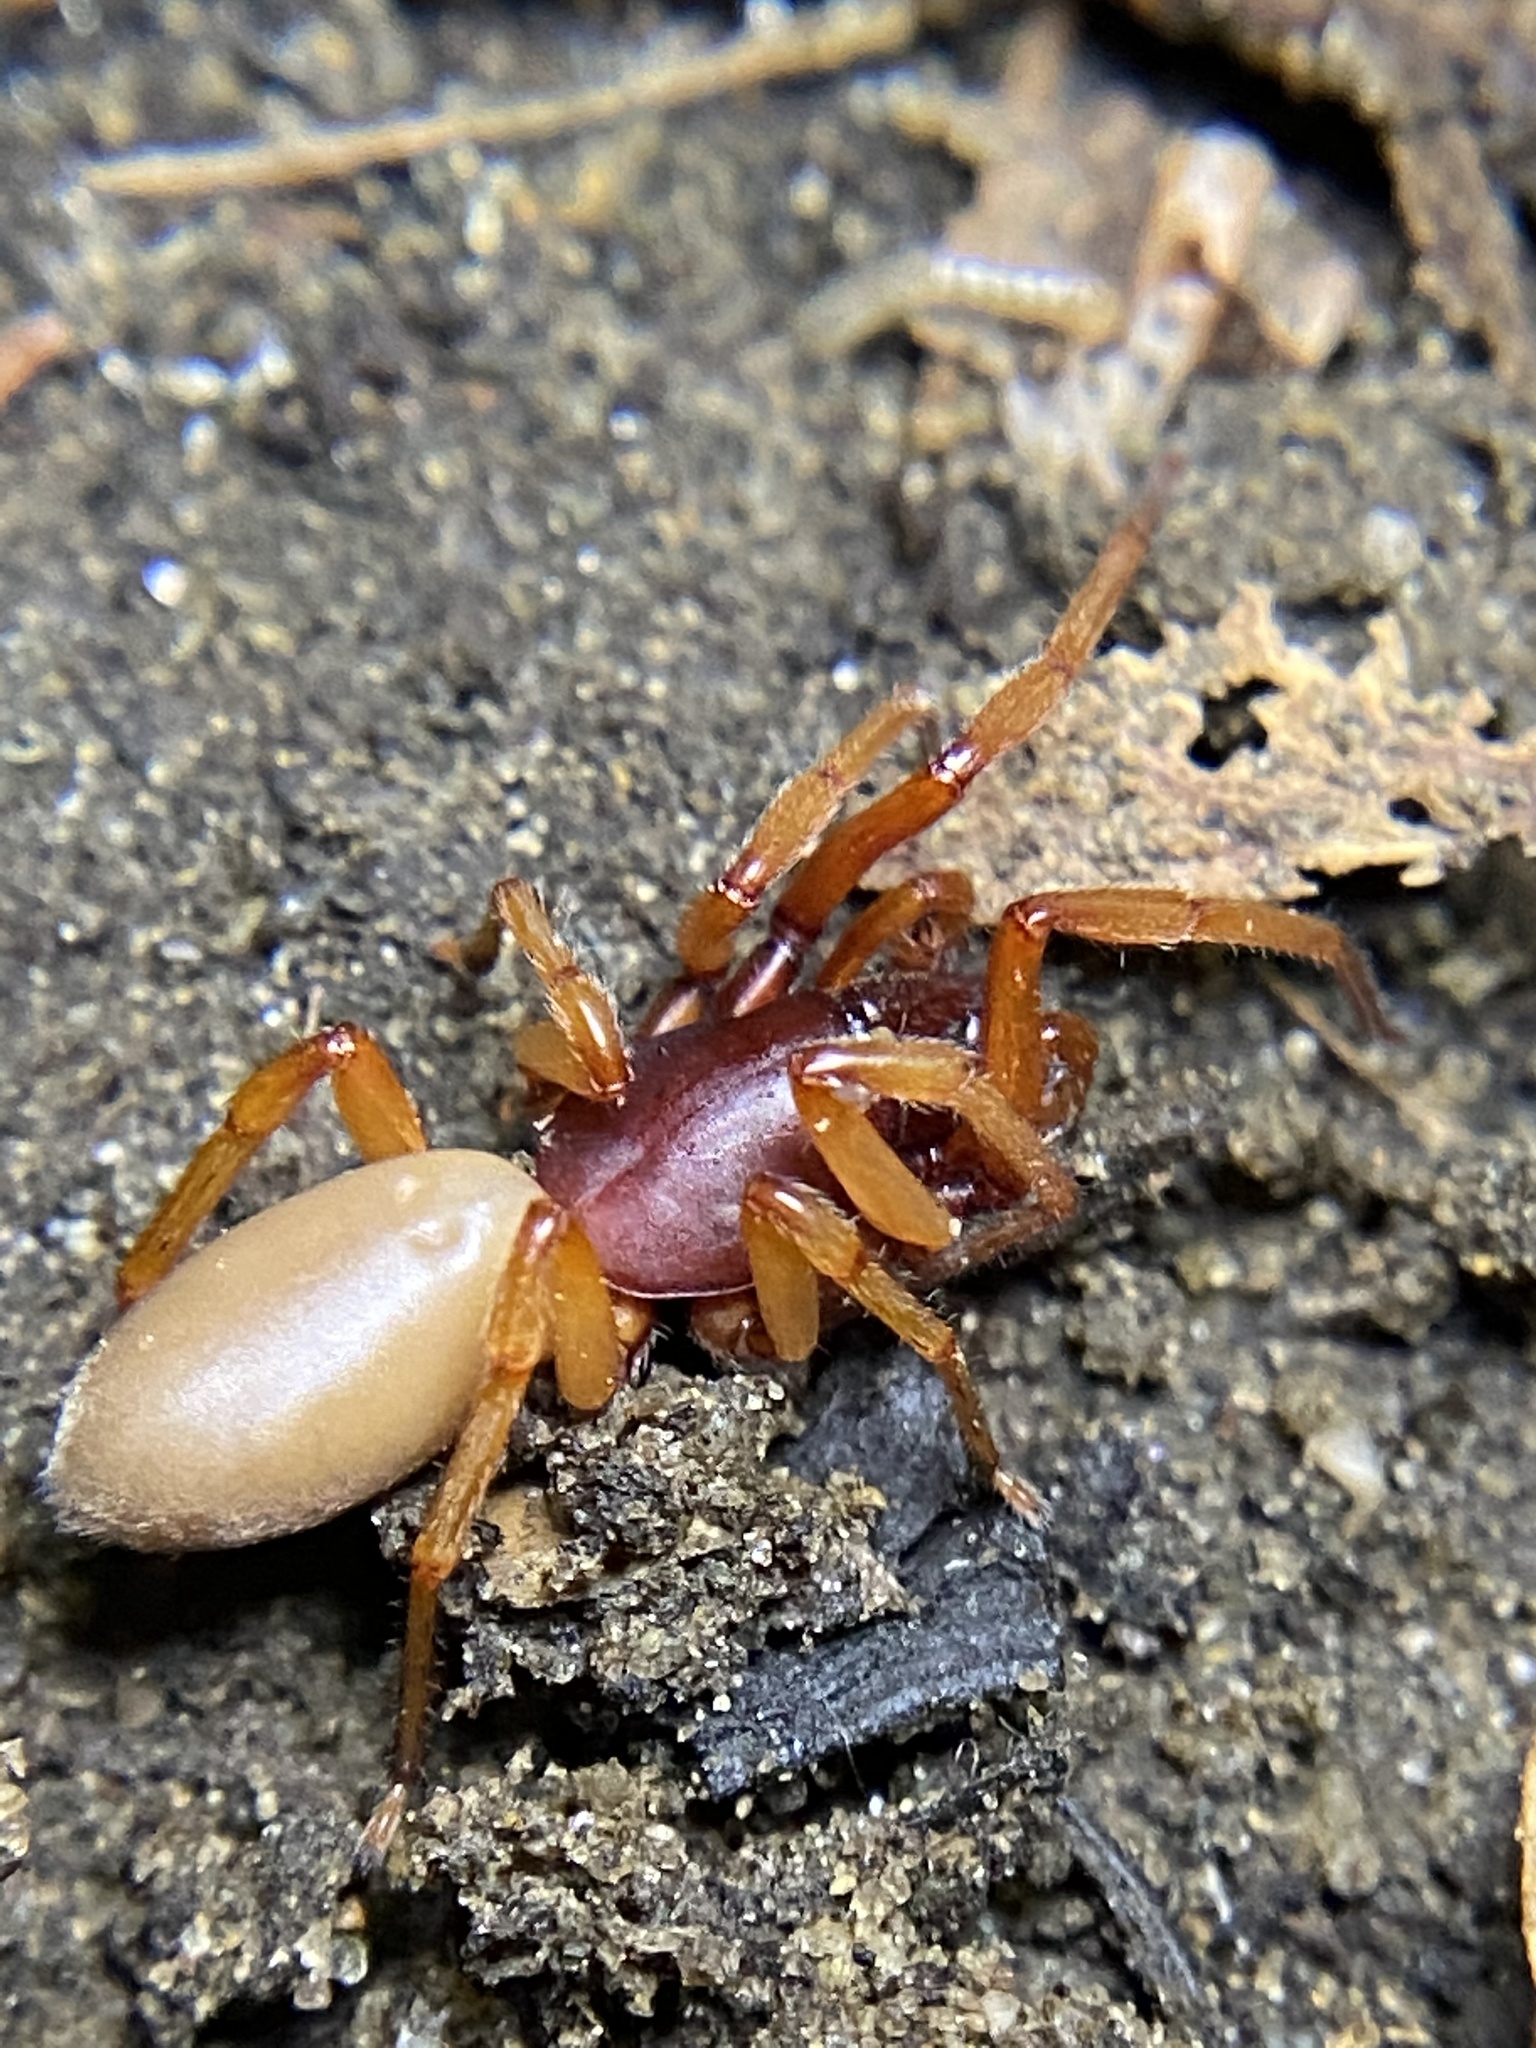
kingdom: Animalia
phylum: Arthropoda
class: Arachnida
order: Araneae
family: Dysderidae
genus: Dysdera
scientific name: Dysdera crocata
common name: Woodlouse spider
